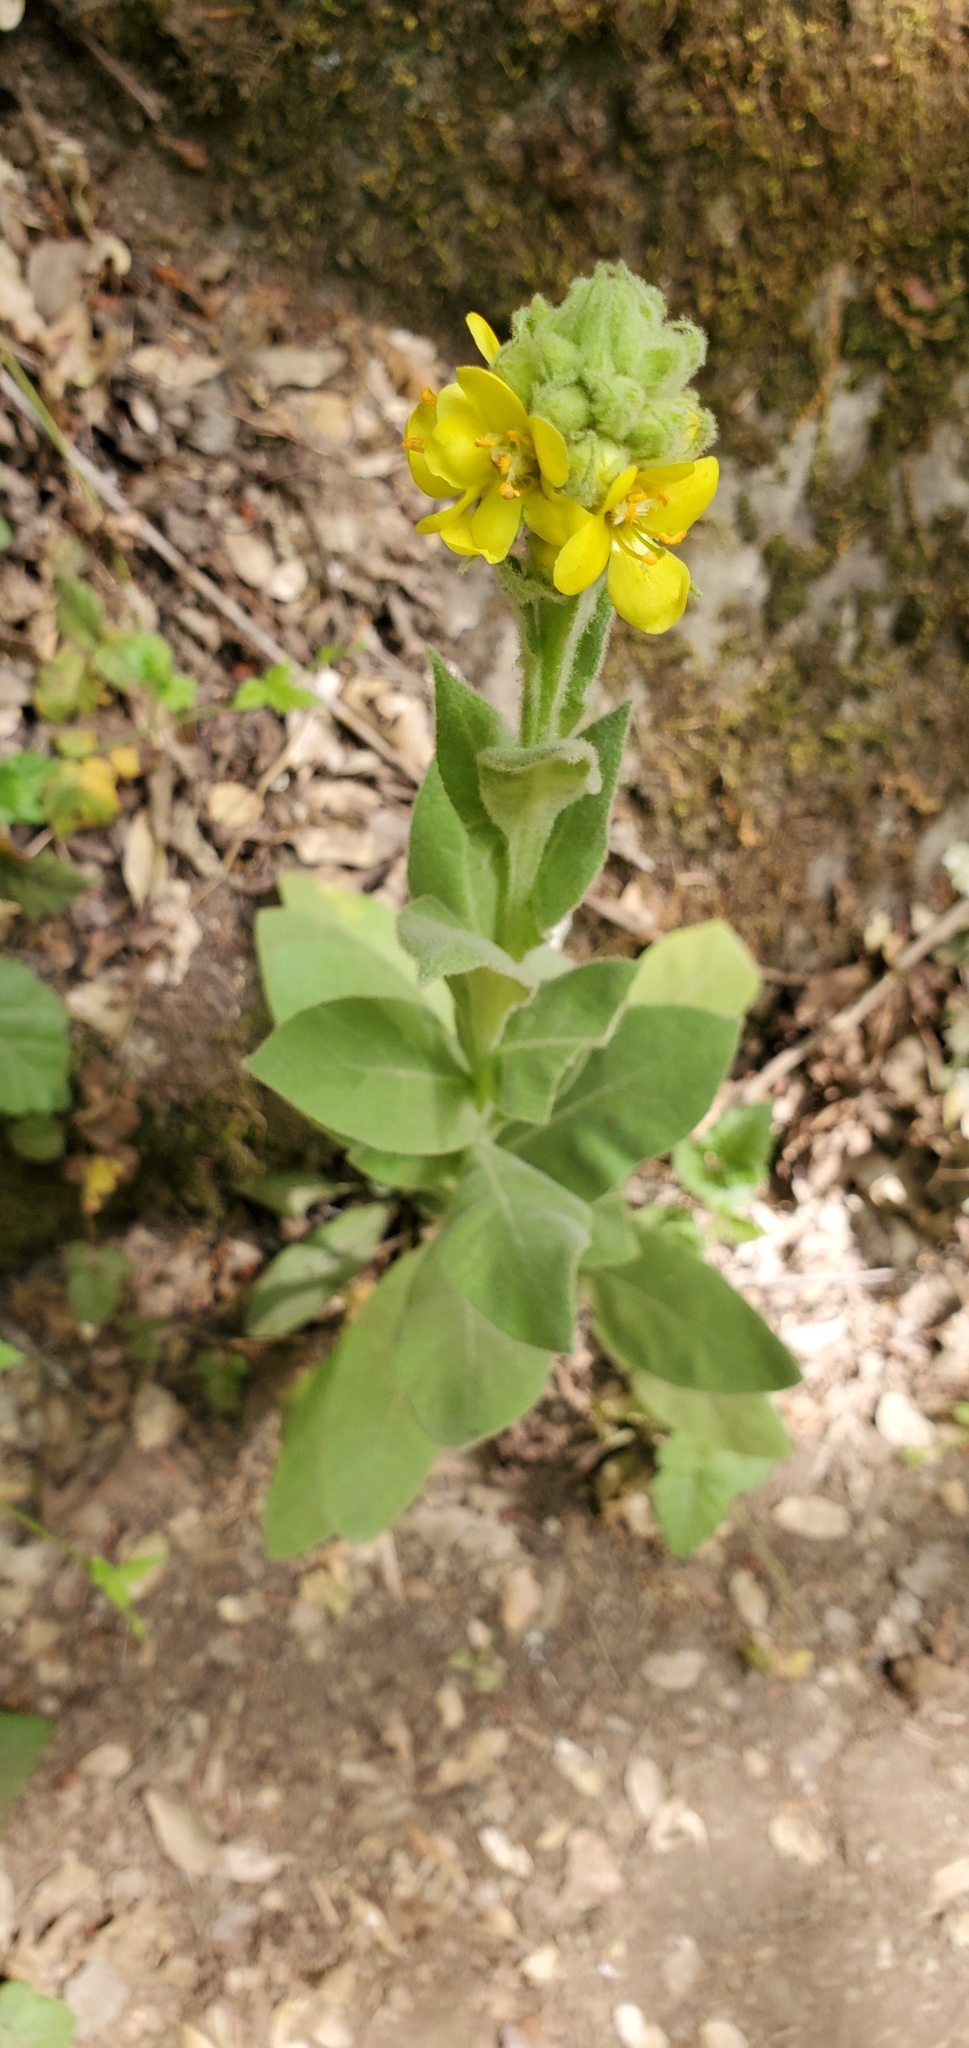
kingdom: Plantae
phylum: Tracheophyta
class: Magnoliopsida
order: Lamiales
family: Scrophulariaceae
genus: Verbascum
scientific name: Verbascum thapsus
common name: Common mullein
